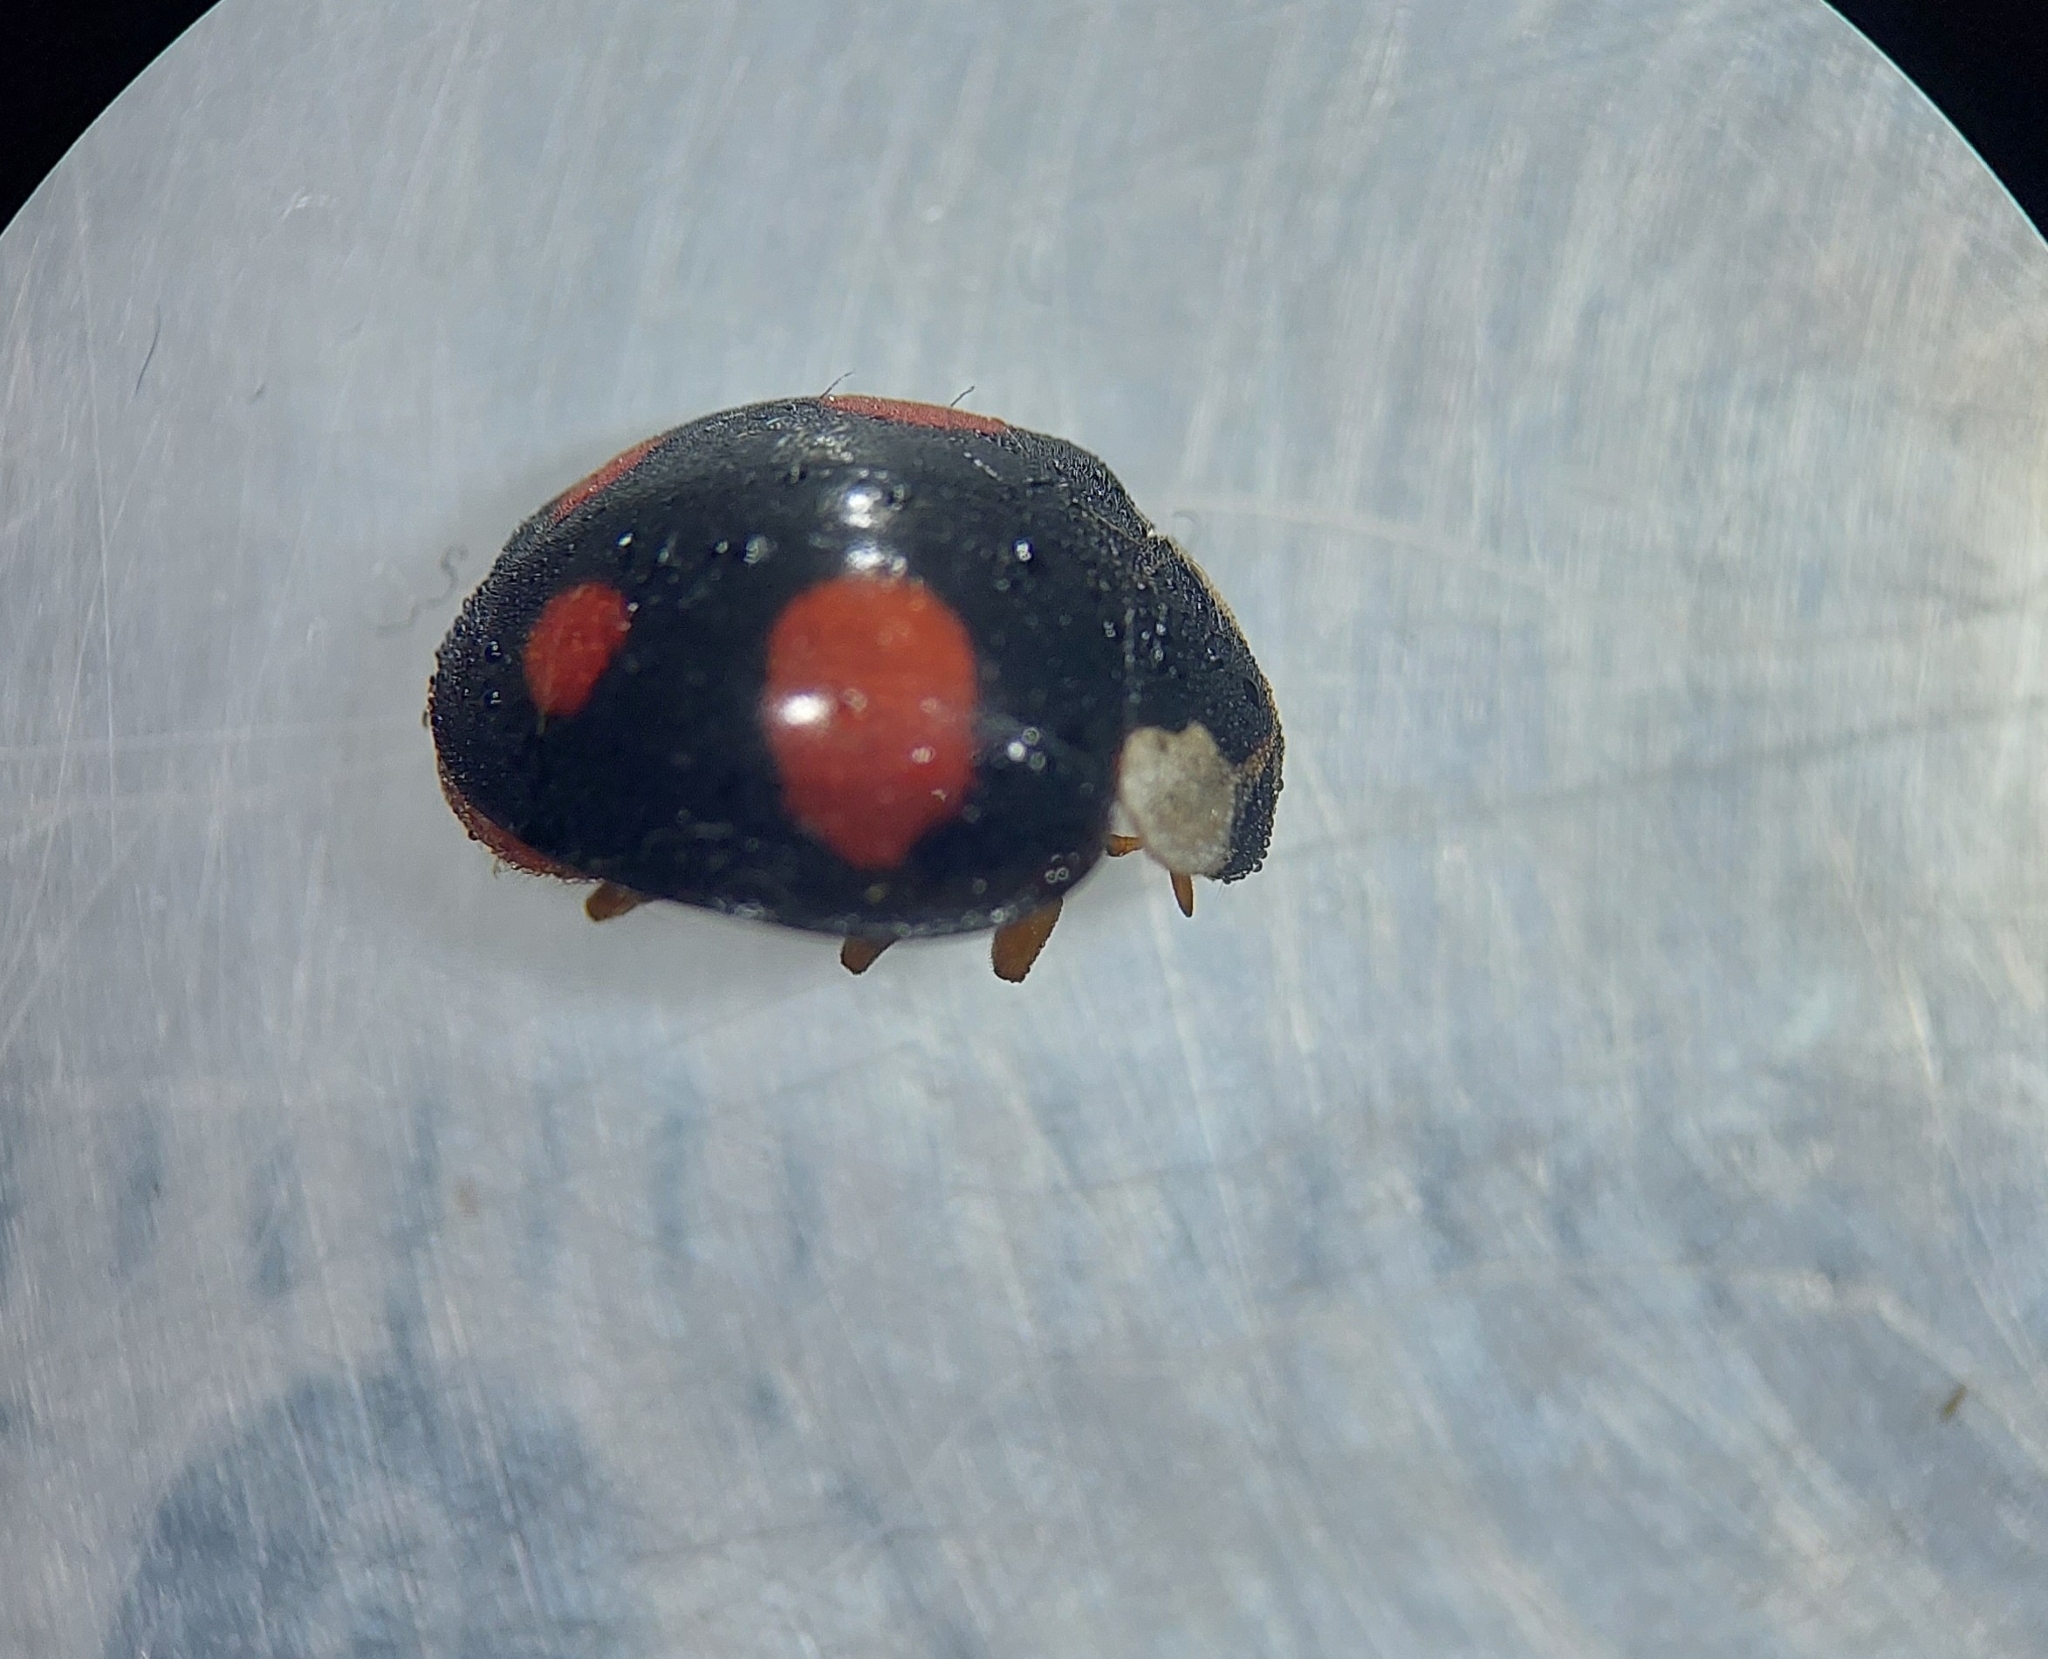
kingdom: Animalia
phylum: Arthropoda
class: Insecta
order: Coleoptera
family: Coccinellidae
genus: Harmonia
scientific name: Harmonia axyridis
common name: Harlequin ladybird
